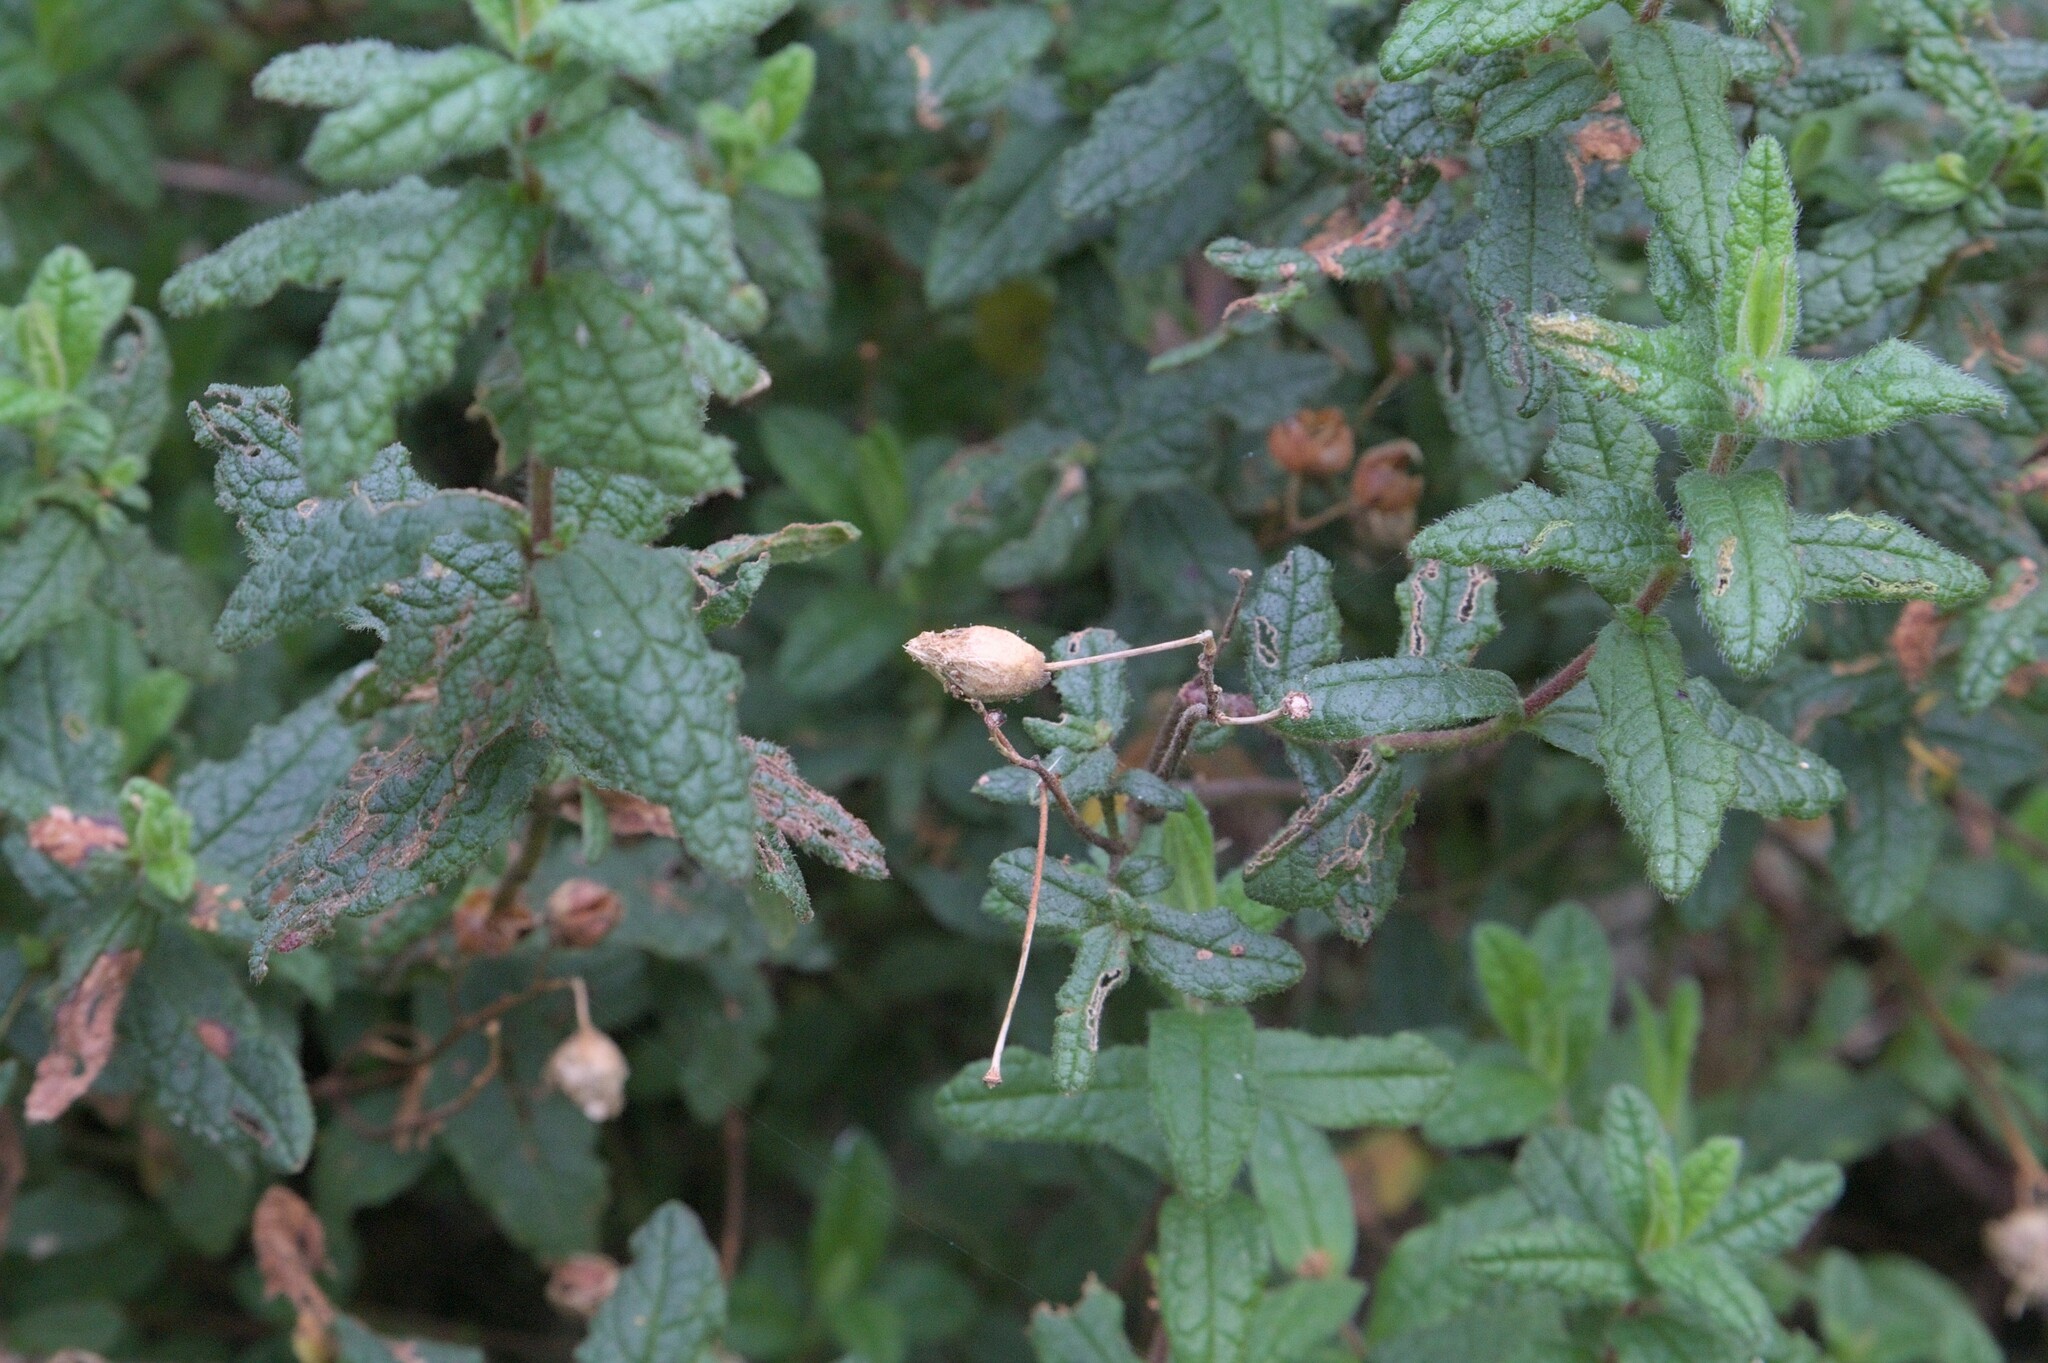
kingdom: Plantae
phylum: Tracheophyta
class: Magnoliopsida
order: Malvales
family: Cistaceae
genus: Cistus
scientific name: Cistus inflatus
